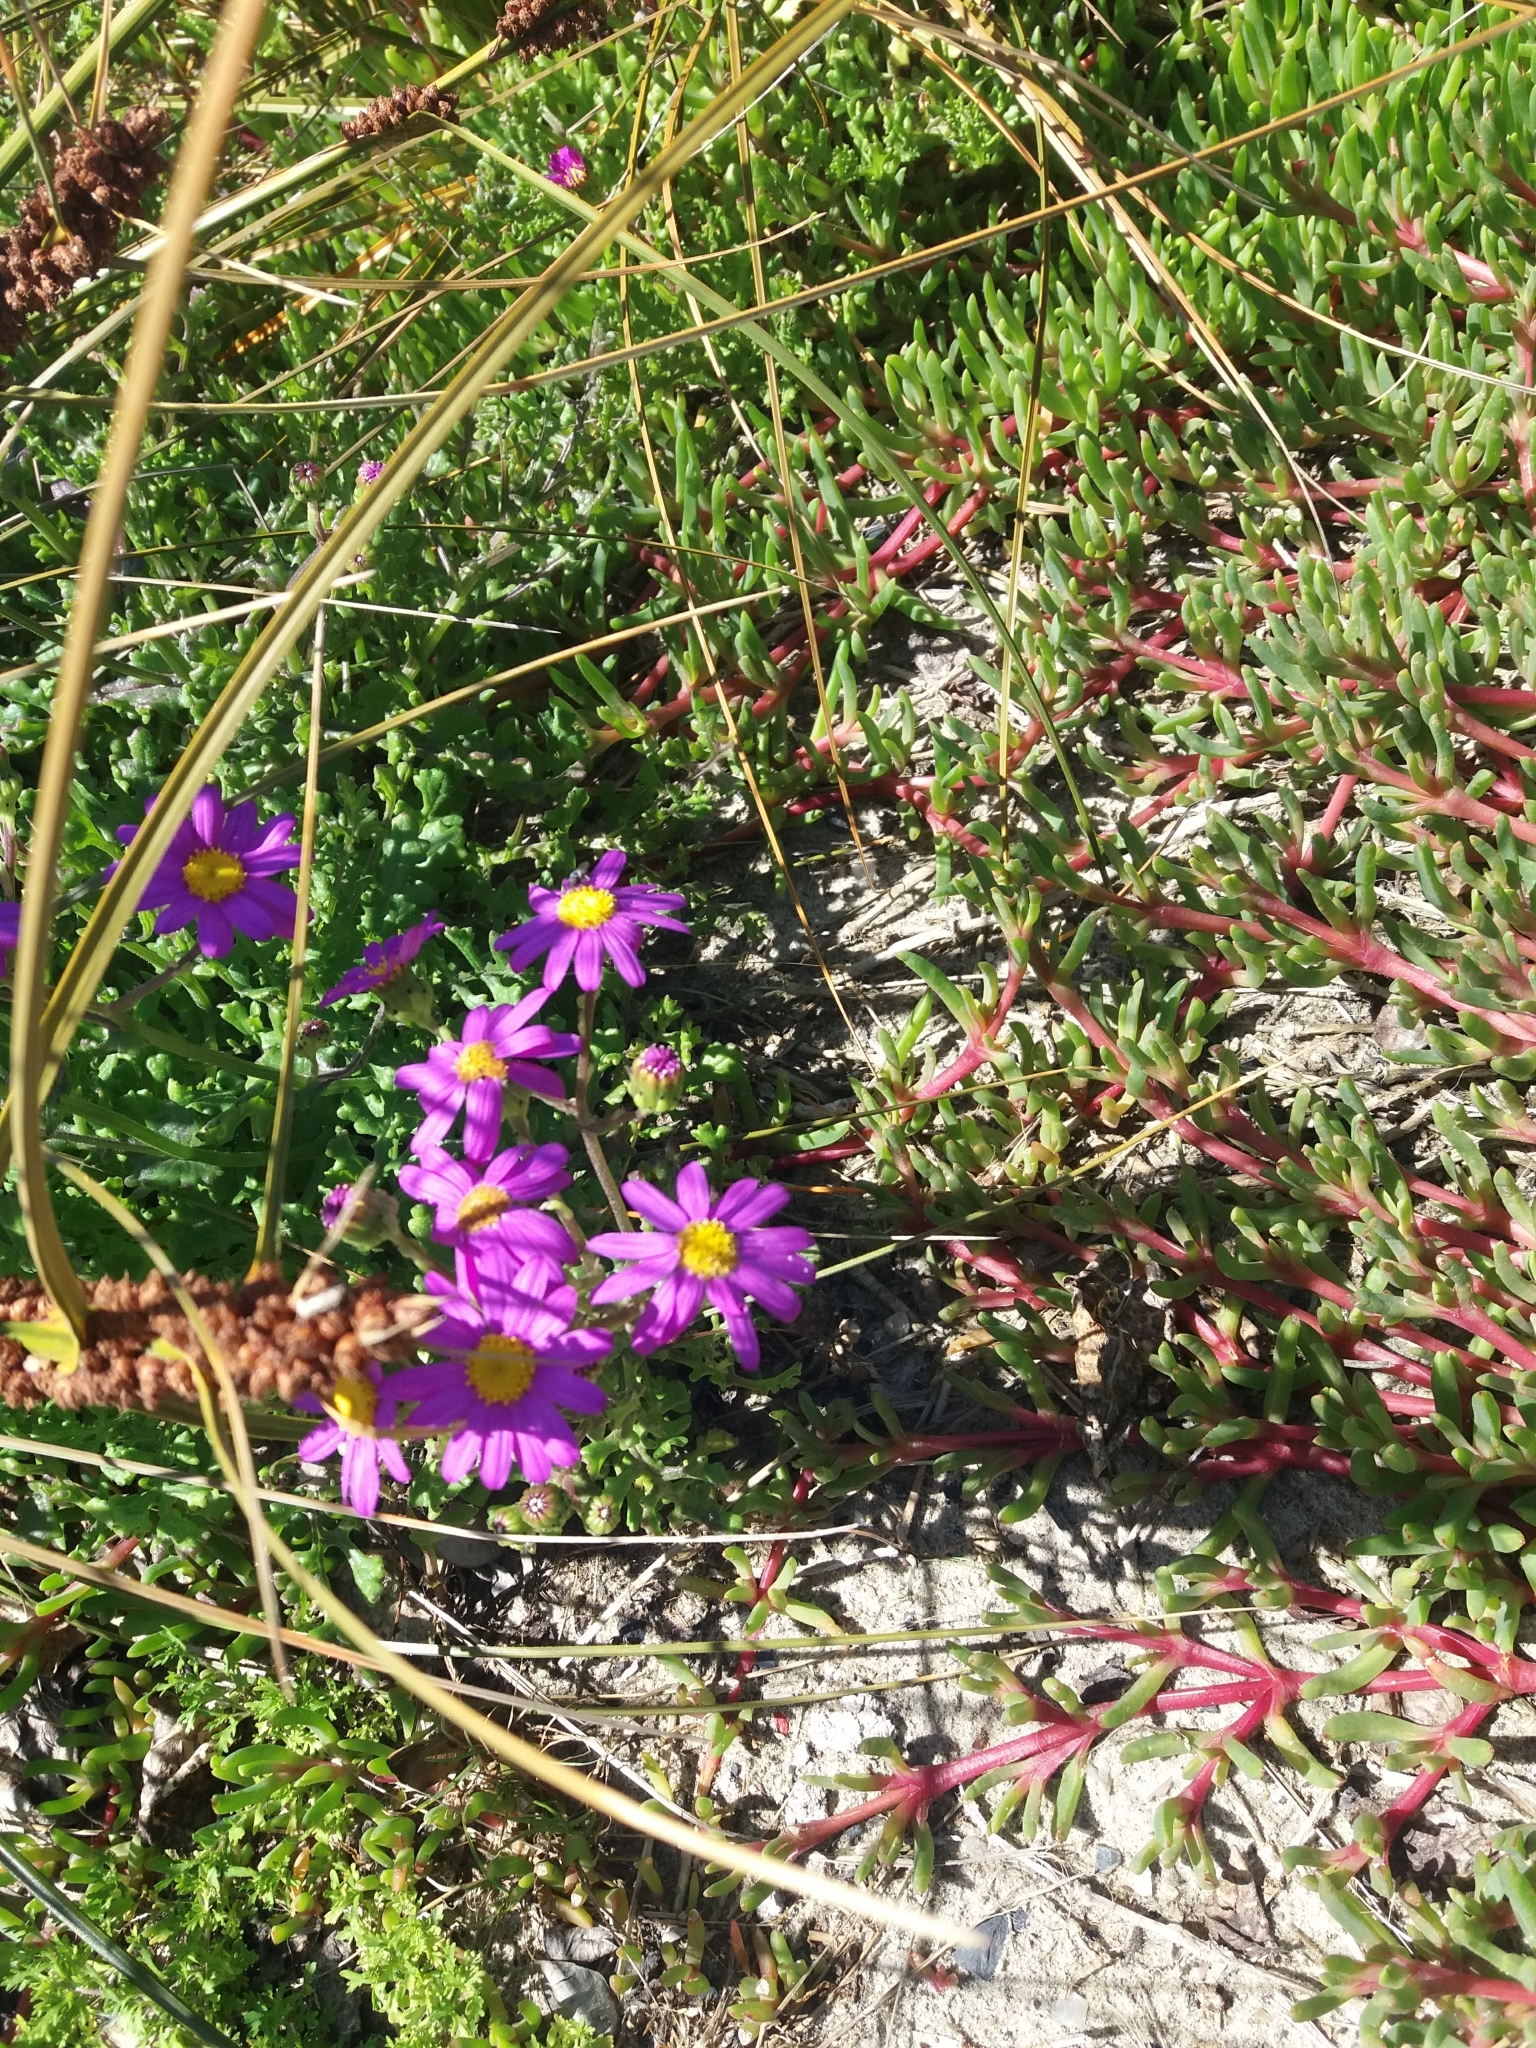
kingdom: Plantae
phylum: Tracheophyta
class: Magnoliopsida
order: Asterales
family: Asteraceae
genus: Senecio
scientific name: Senecio elegans
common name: Purple groundsel
